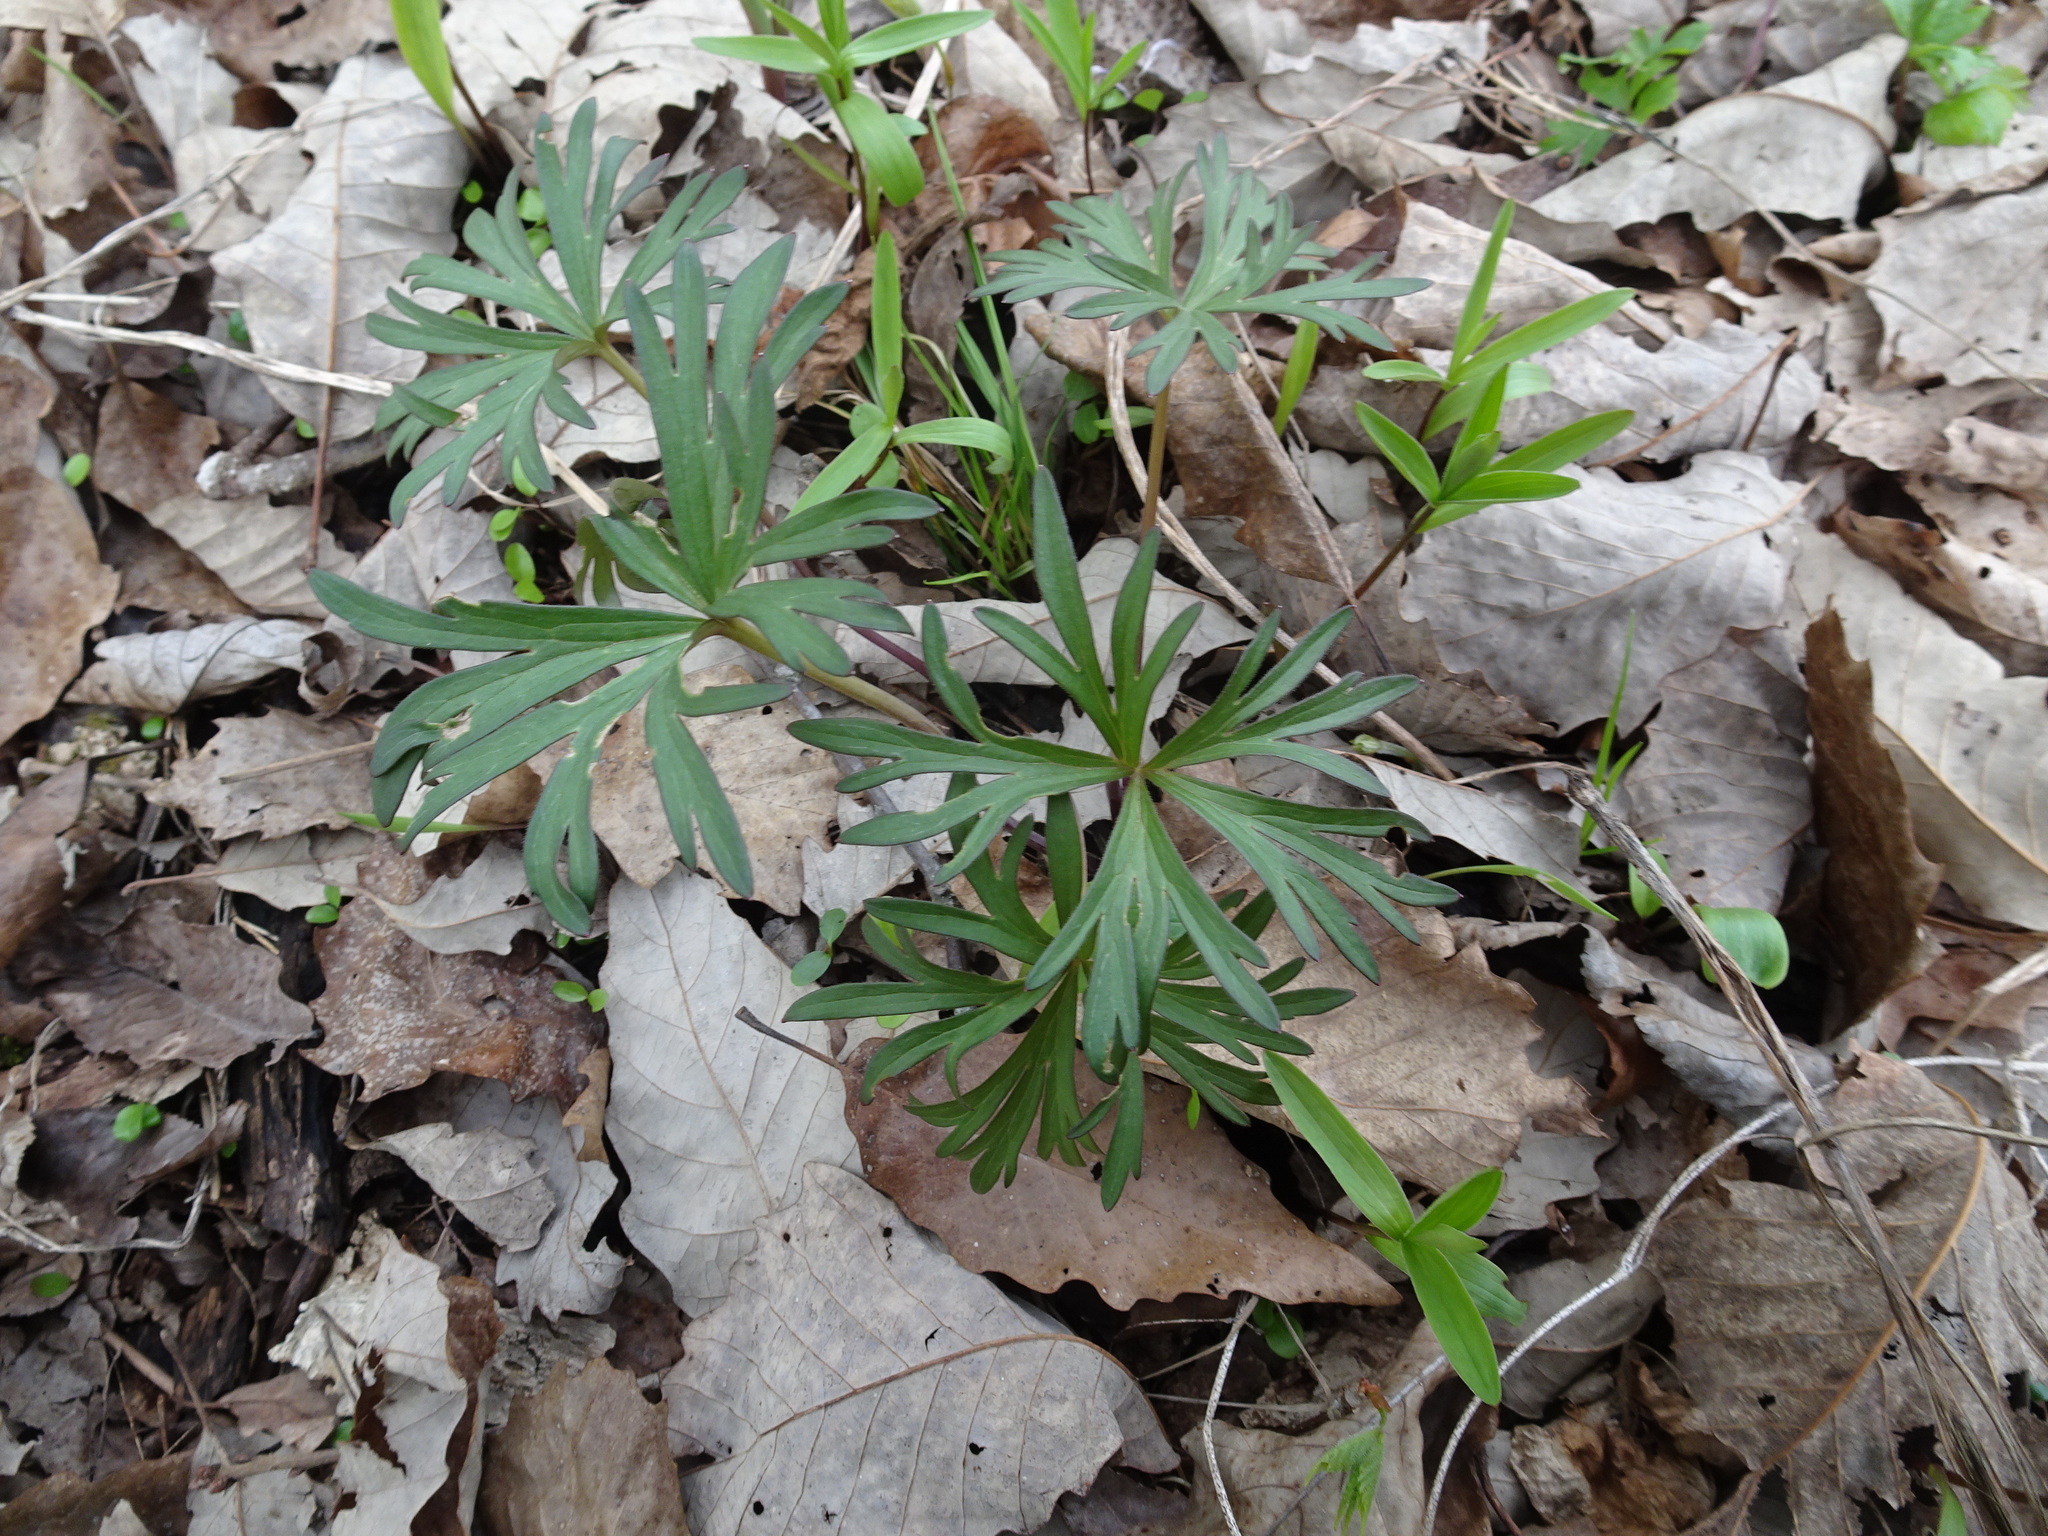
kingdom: Plantae
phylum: Tracheophyta
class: Magnoliopsida
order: Ranunculales
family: Ranunculaceae
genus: Delphinium
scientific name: Delphinium tricorne
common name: Dwarf larkspur
